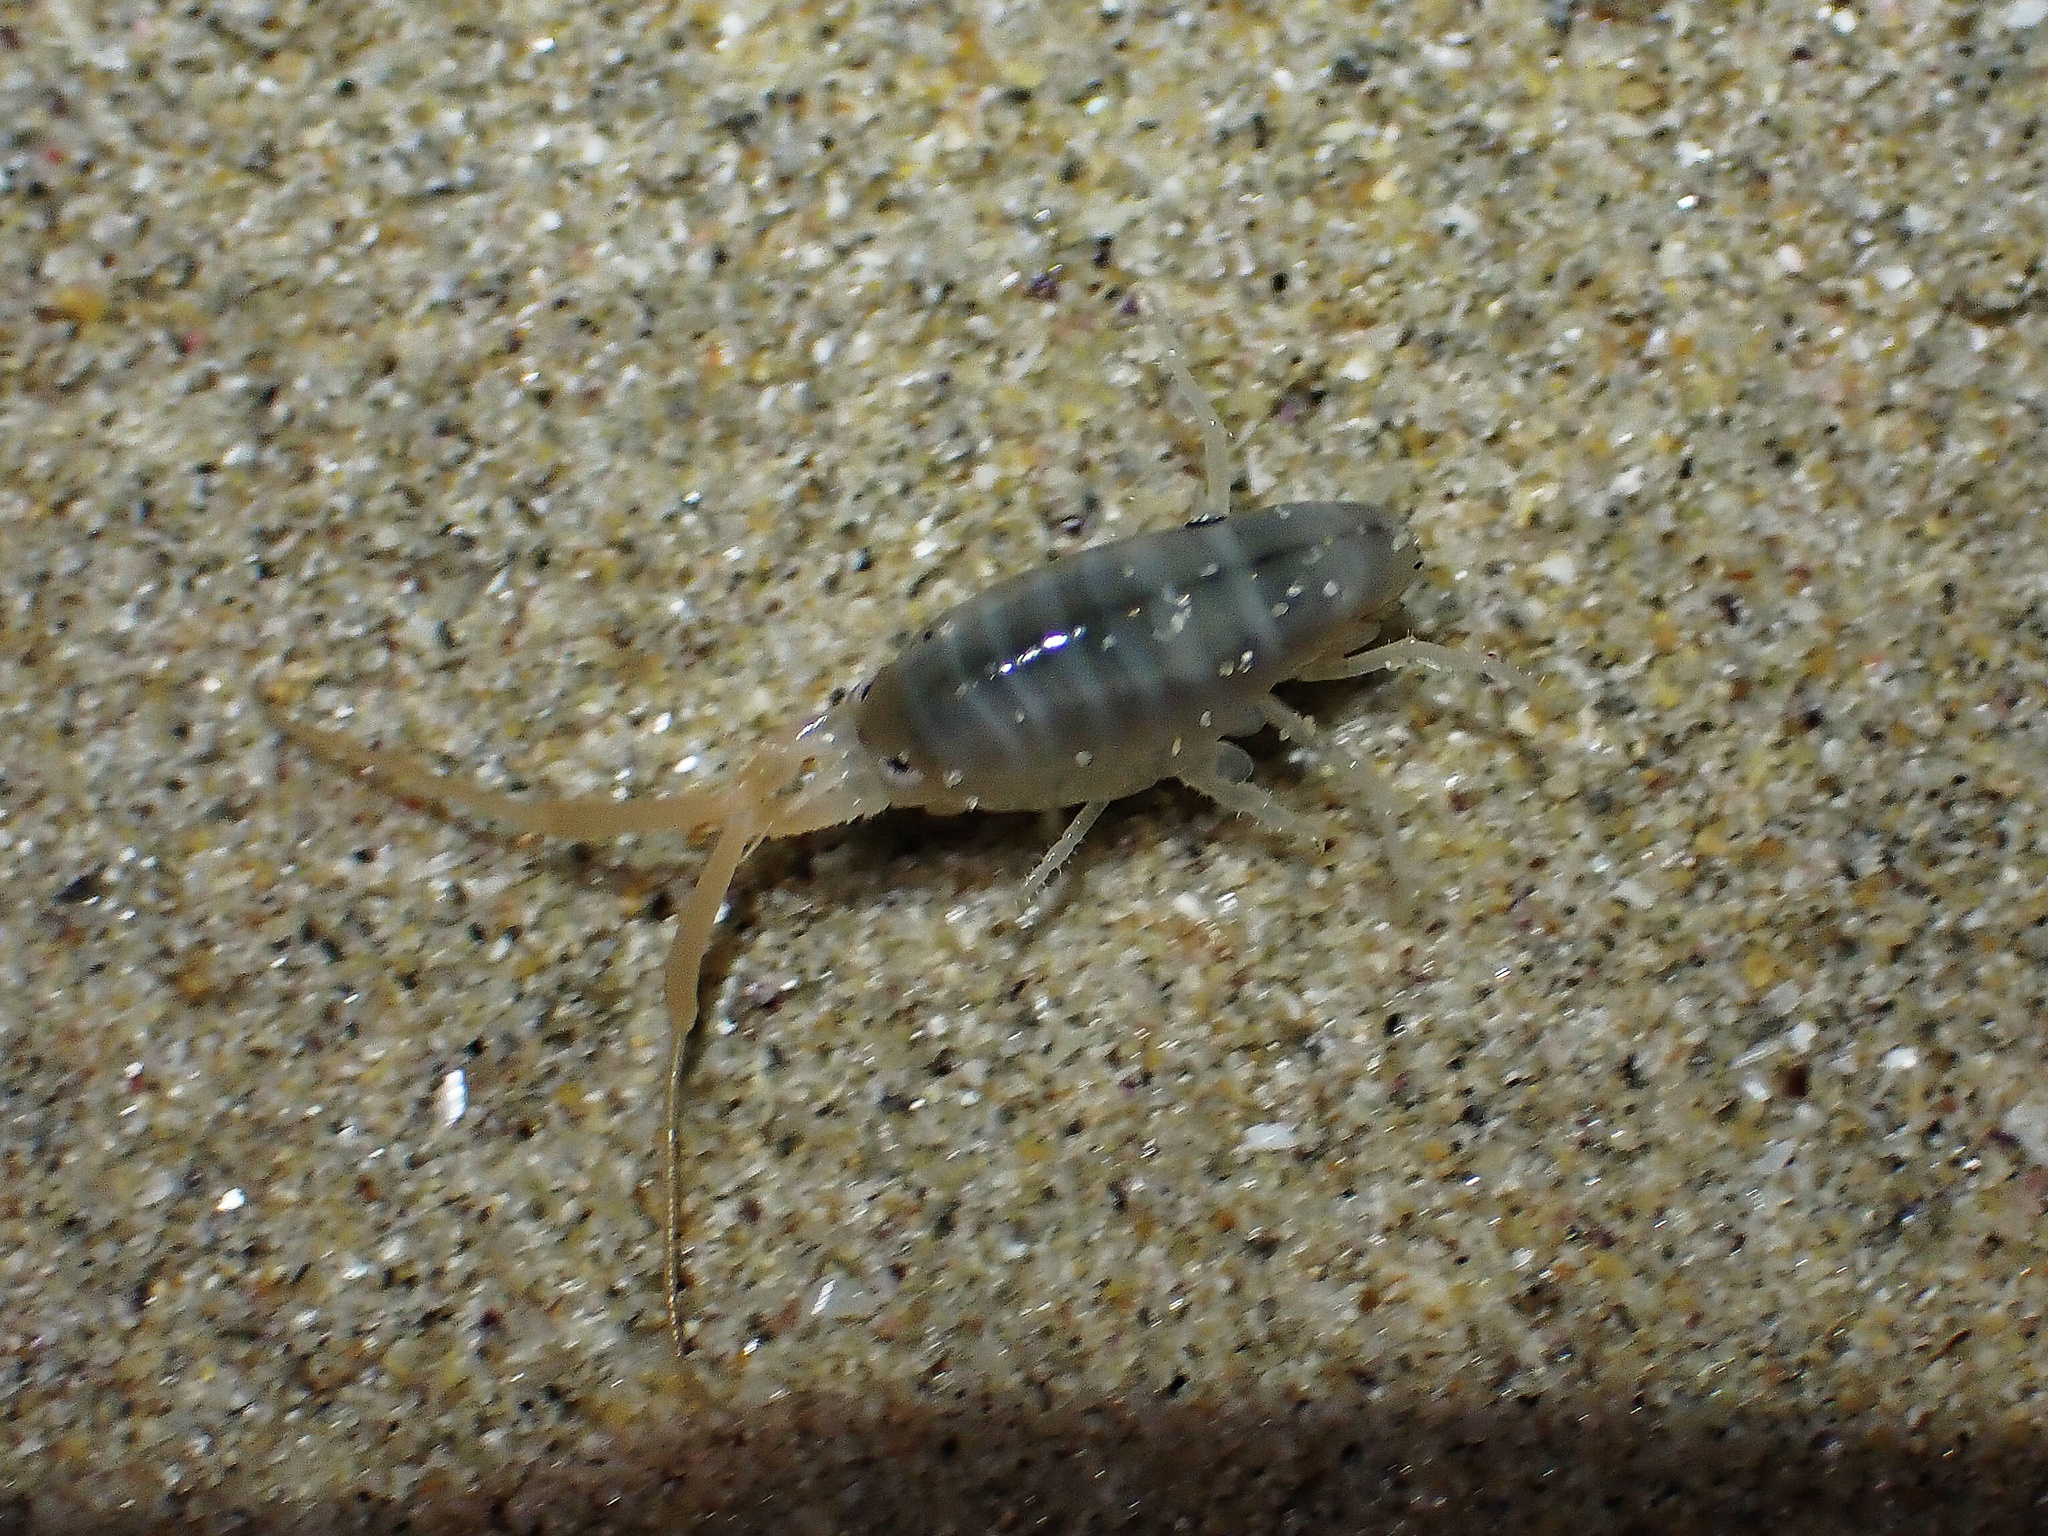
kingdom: Animalia
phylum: Arthropoda
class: Malacostraca
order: Amphipoda
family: Talitridae
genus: Talitrus
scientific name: Talitrus saltator
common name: Sand hopper
